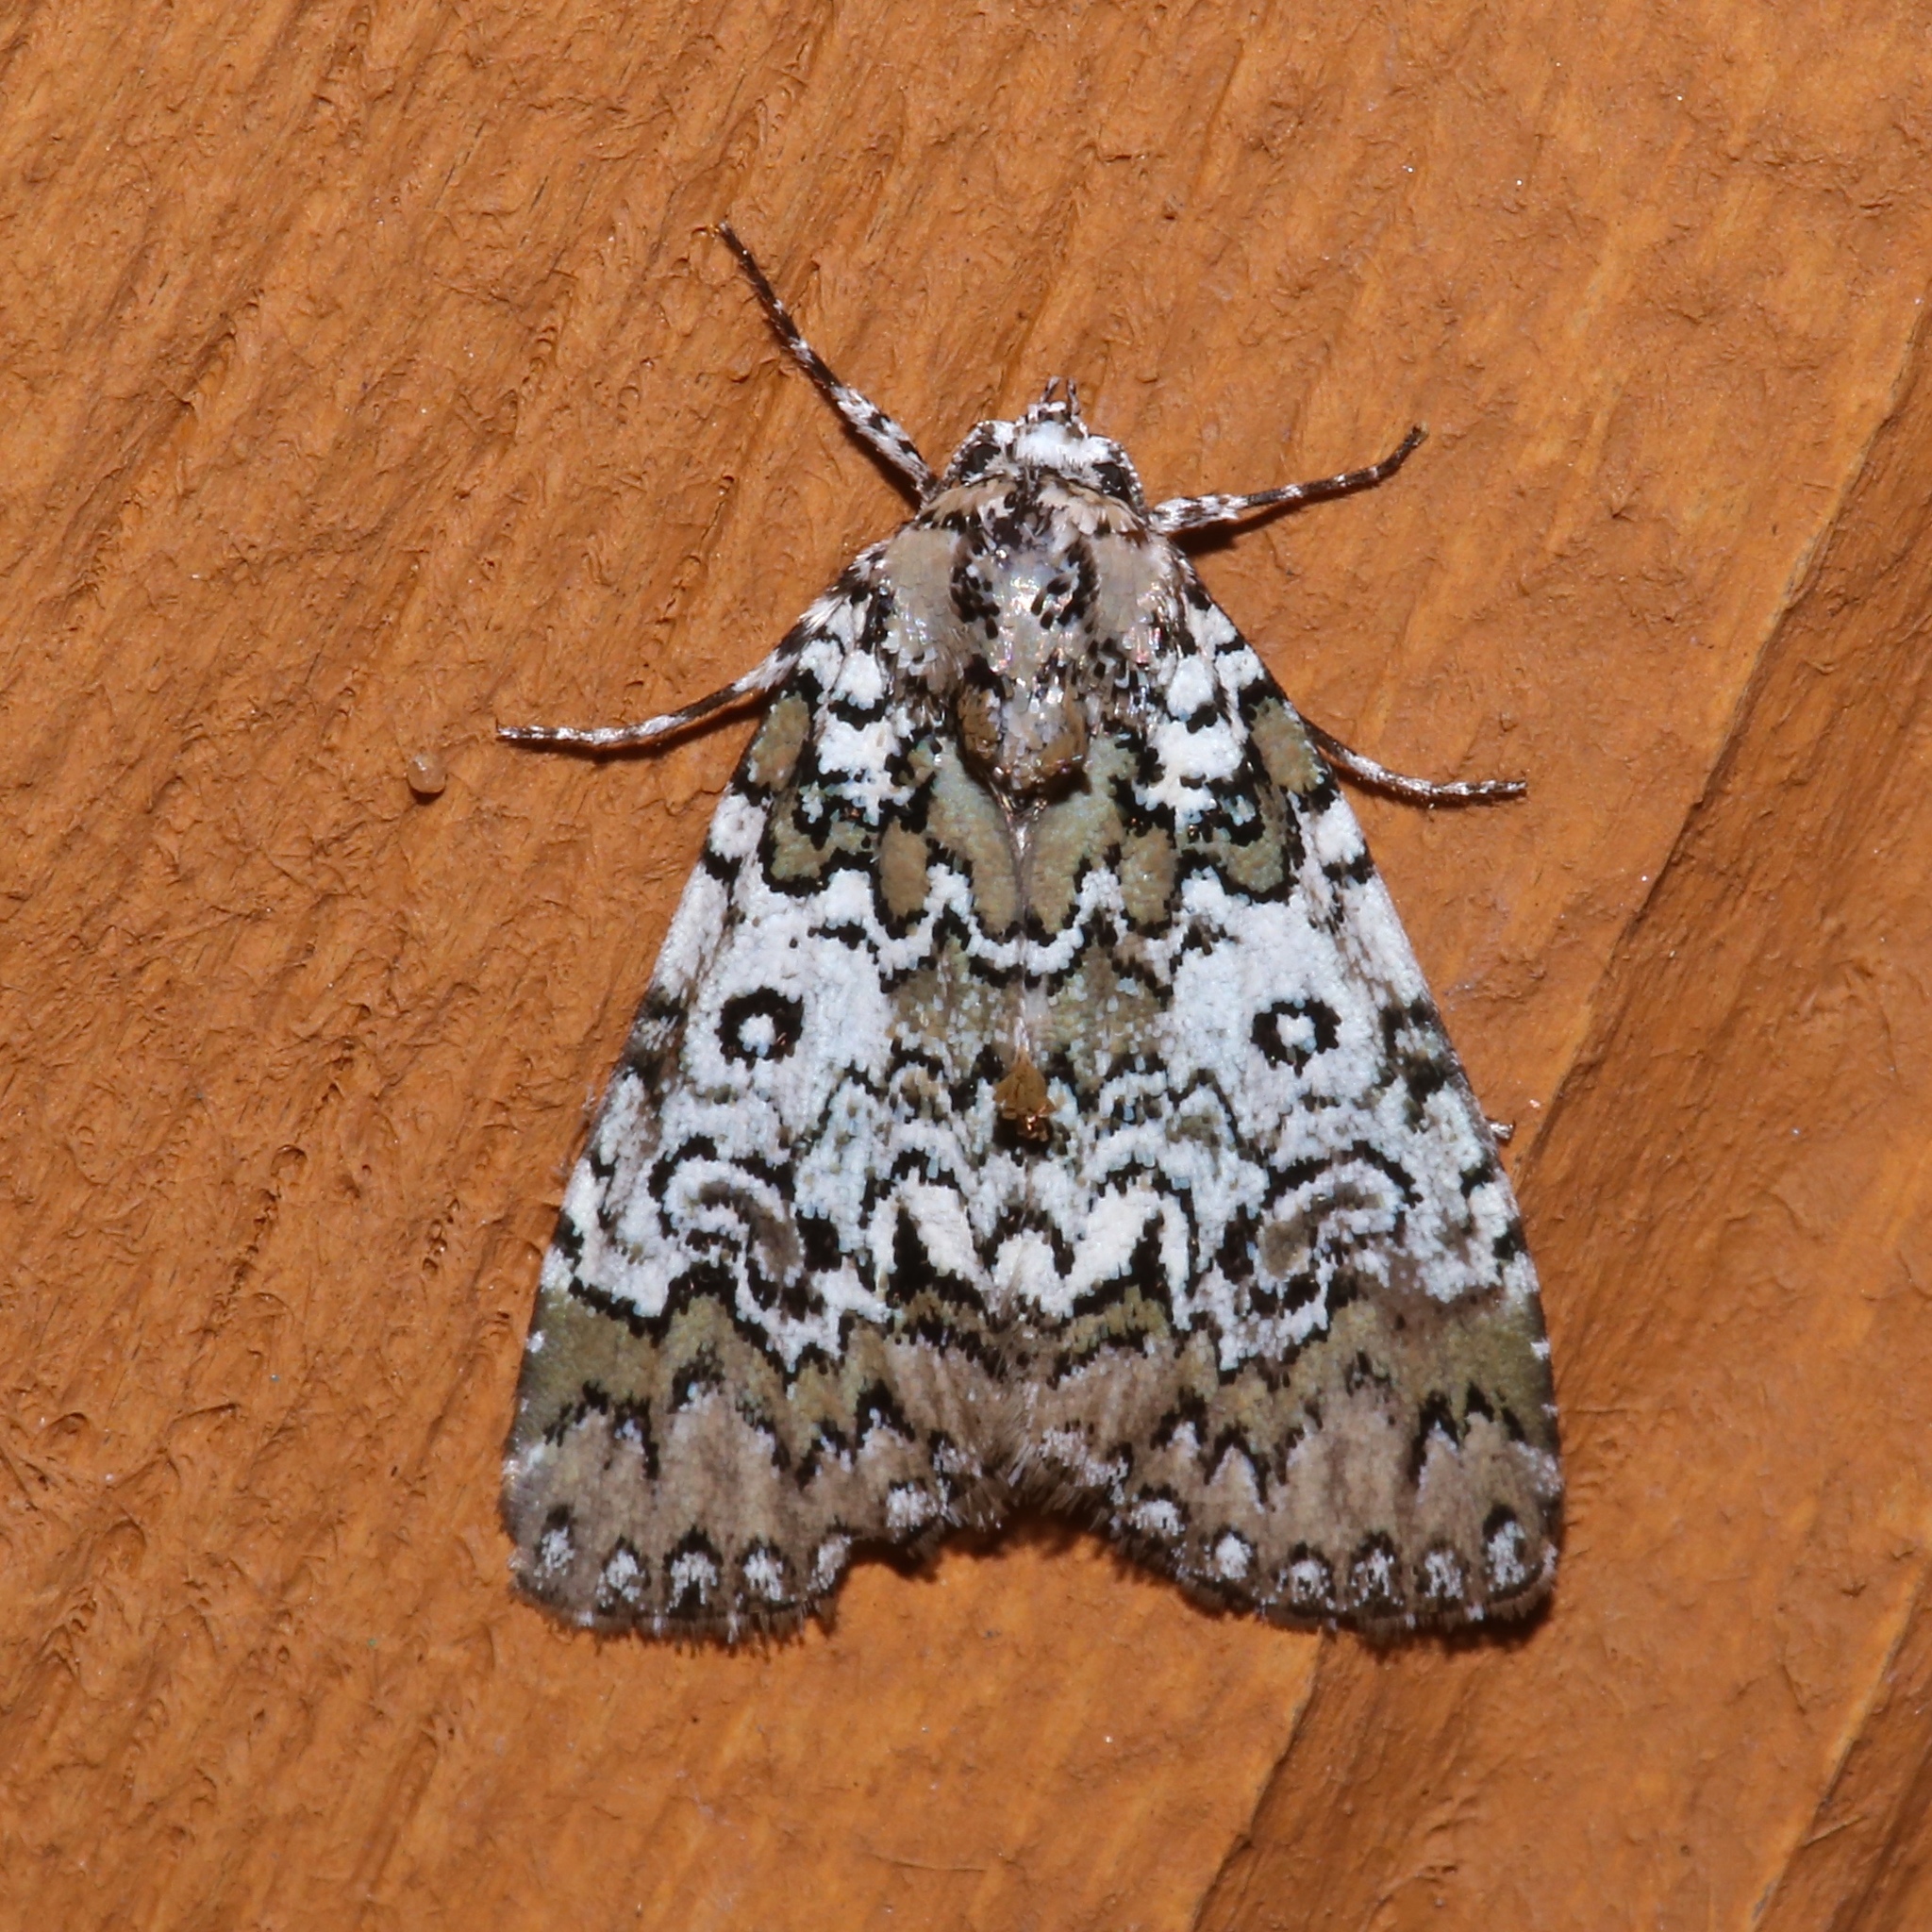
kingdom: Animalia
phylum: Arthropoda
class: Insecta
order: Lepidoptera
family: Noctuidae
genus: Cerma
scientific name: Cerma cora
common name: Bird dropping moth
